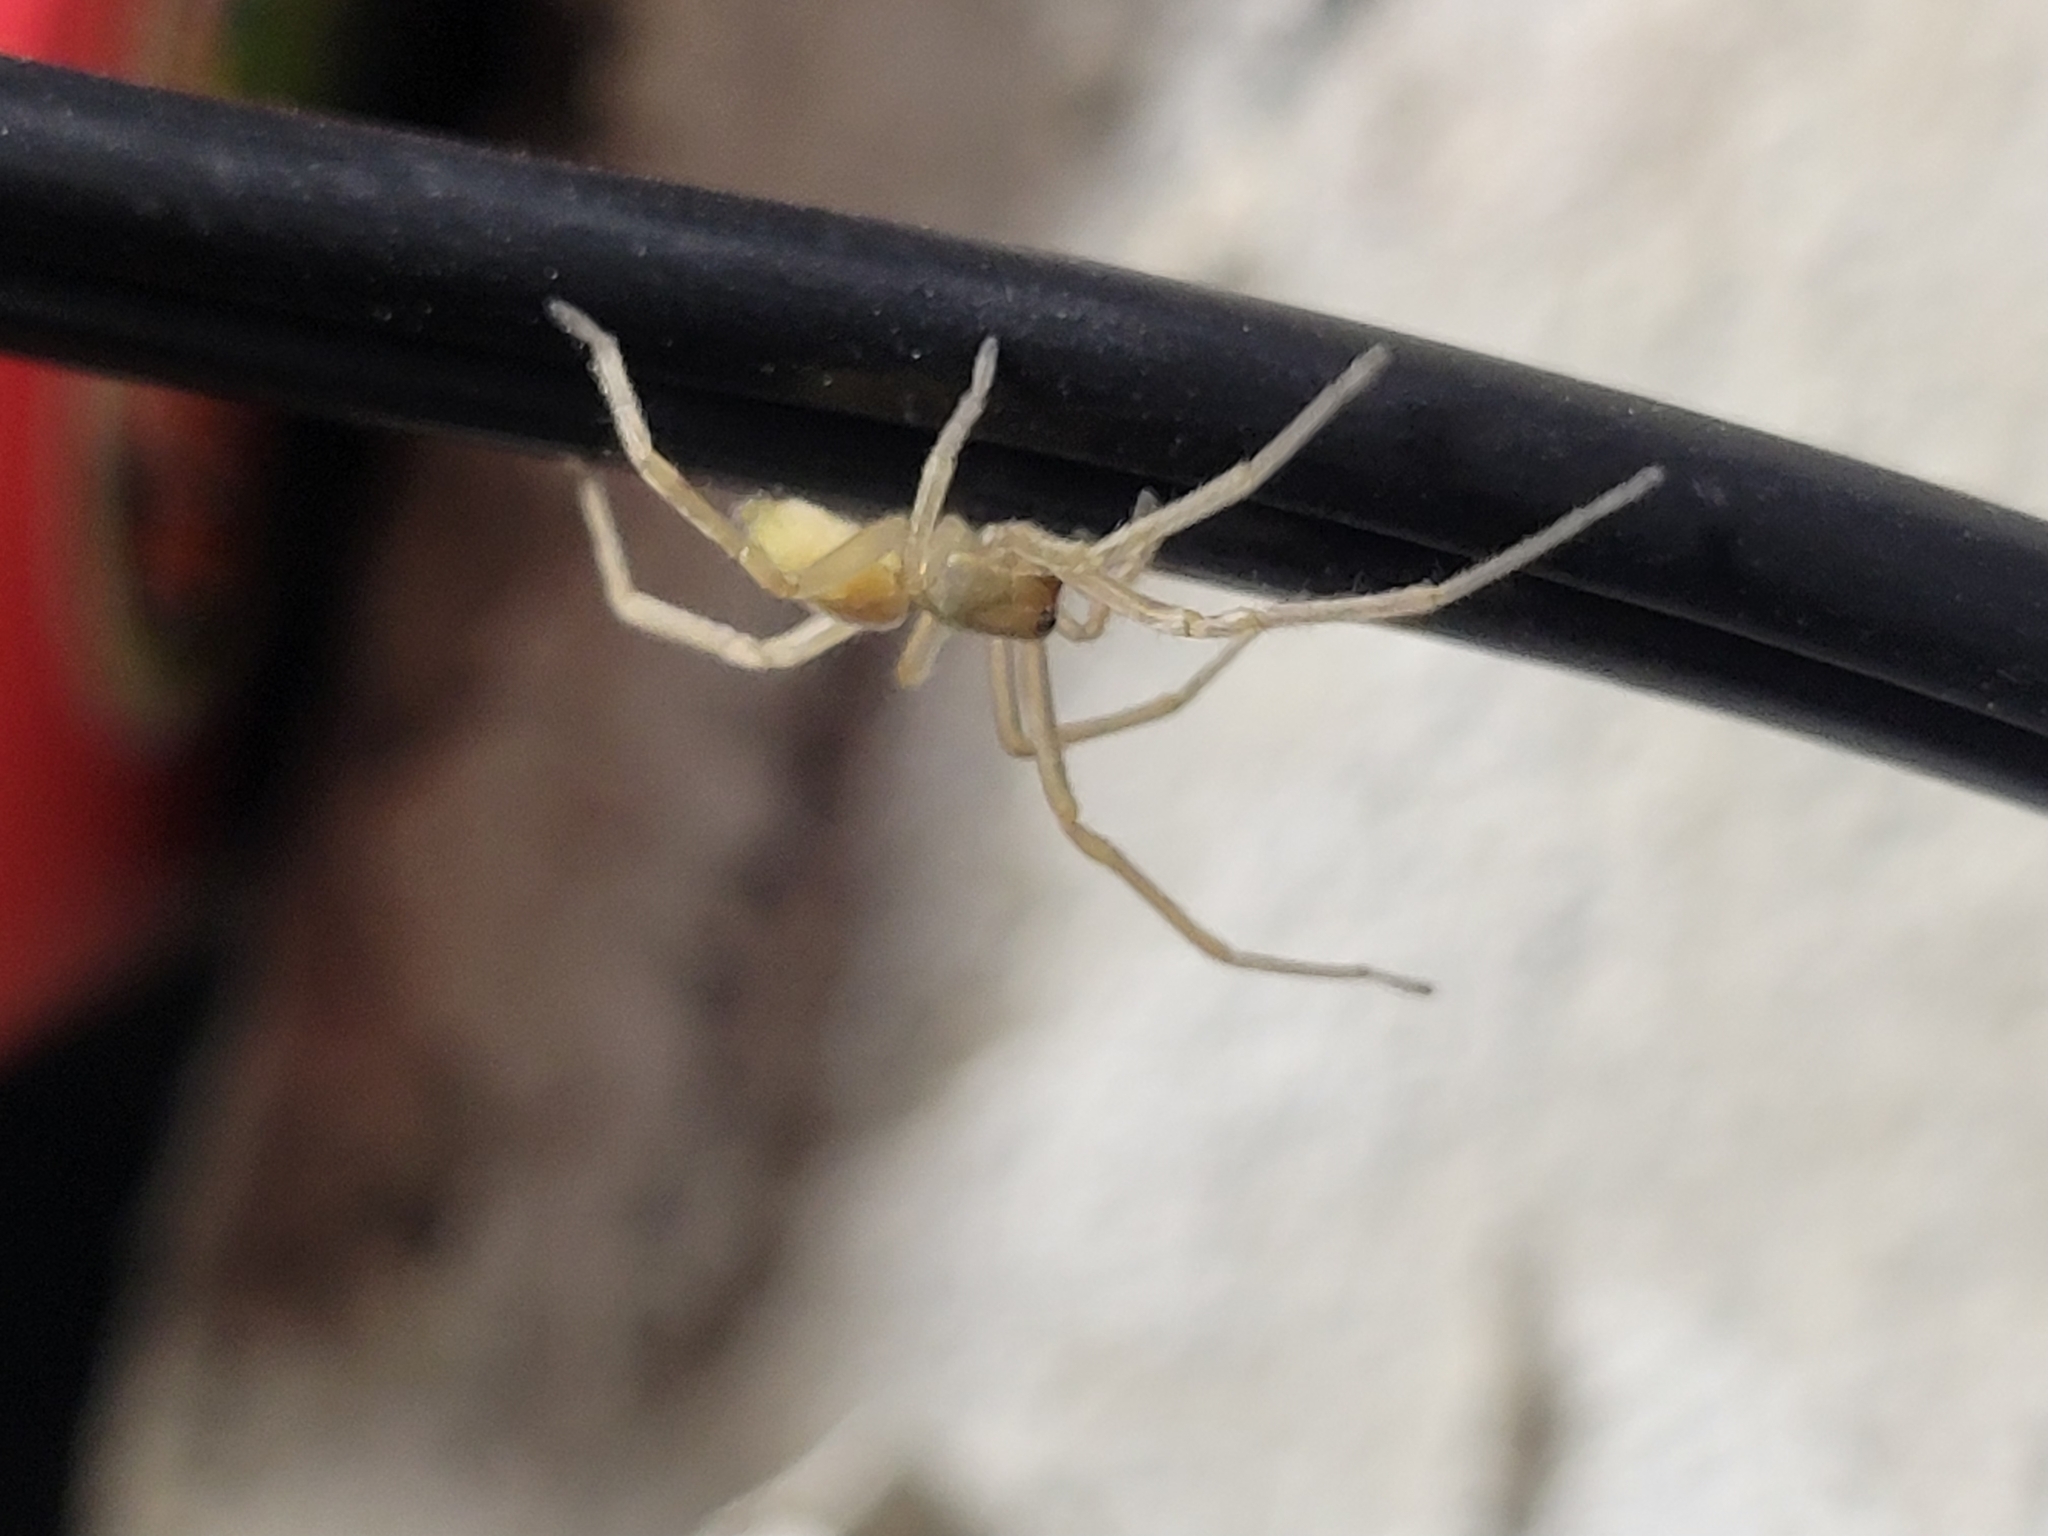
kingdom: Animalia
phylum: Arthropoda
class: Arachnida
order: Araneae
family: Cheiracanthiidae
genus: Cheiracanthium
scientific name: Cheiracanthium mildei
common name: Northern yellow sac spider
